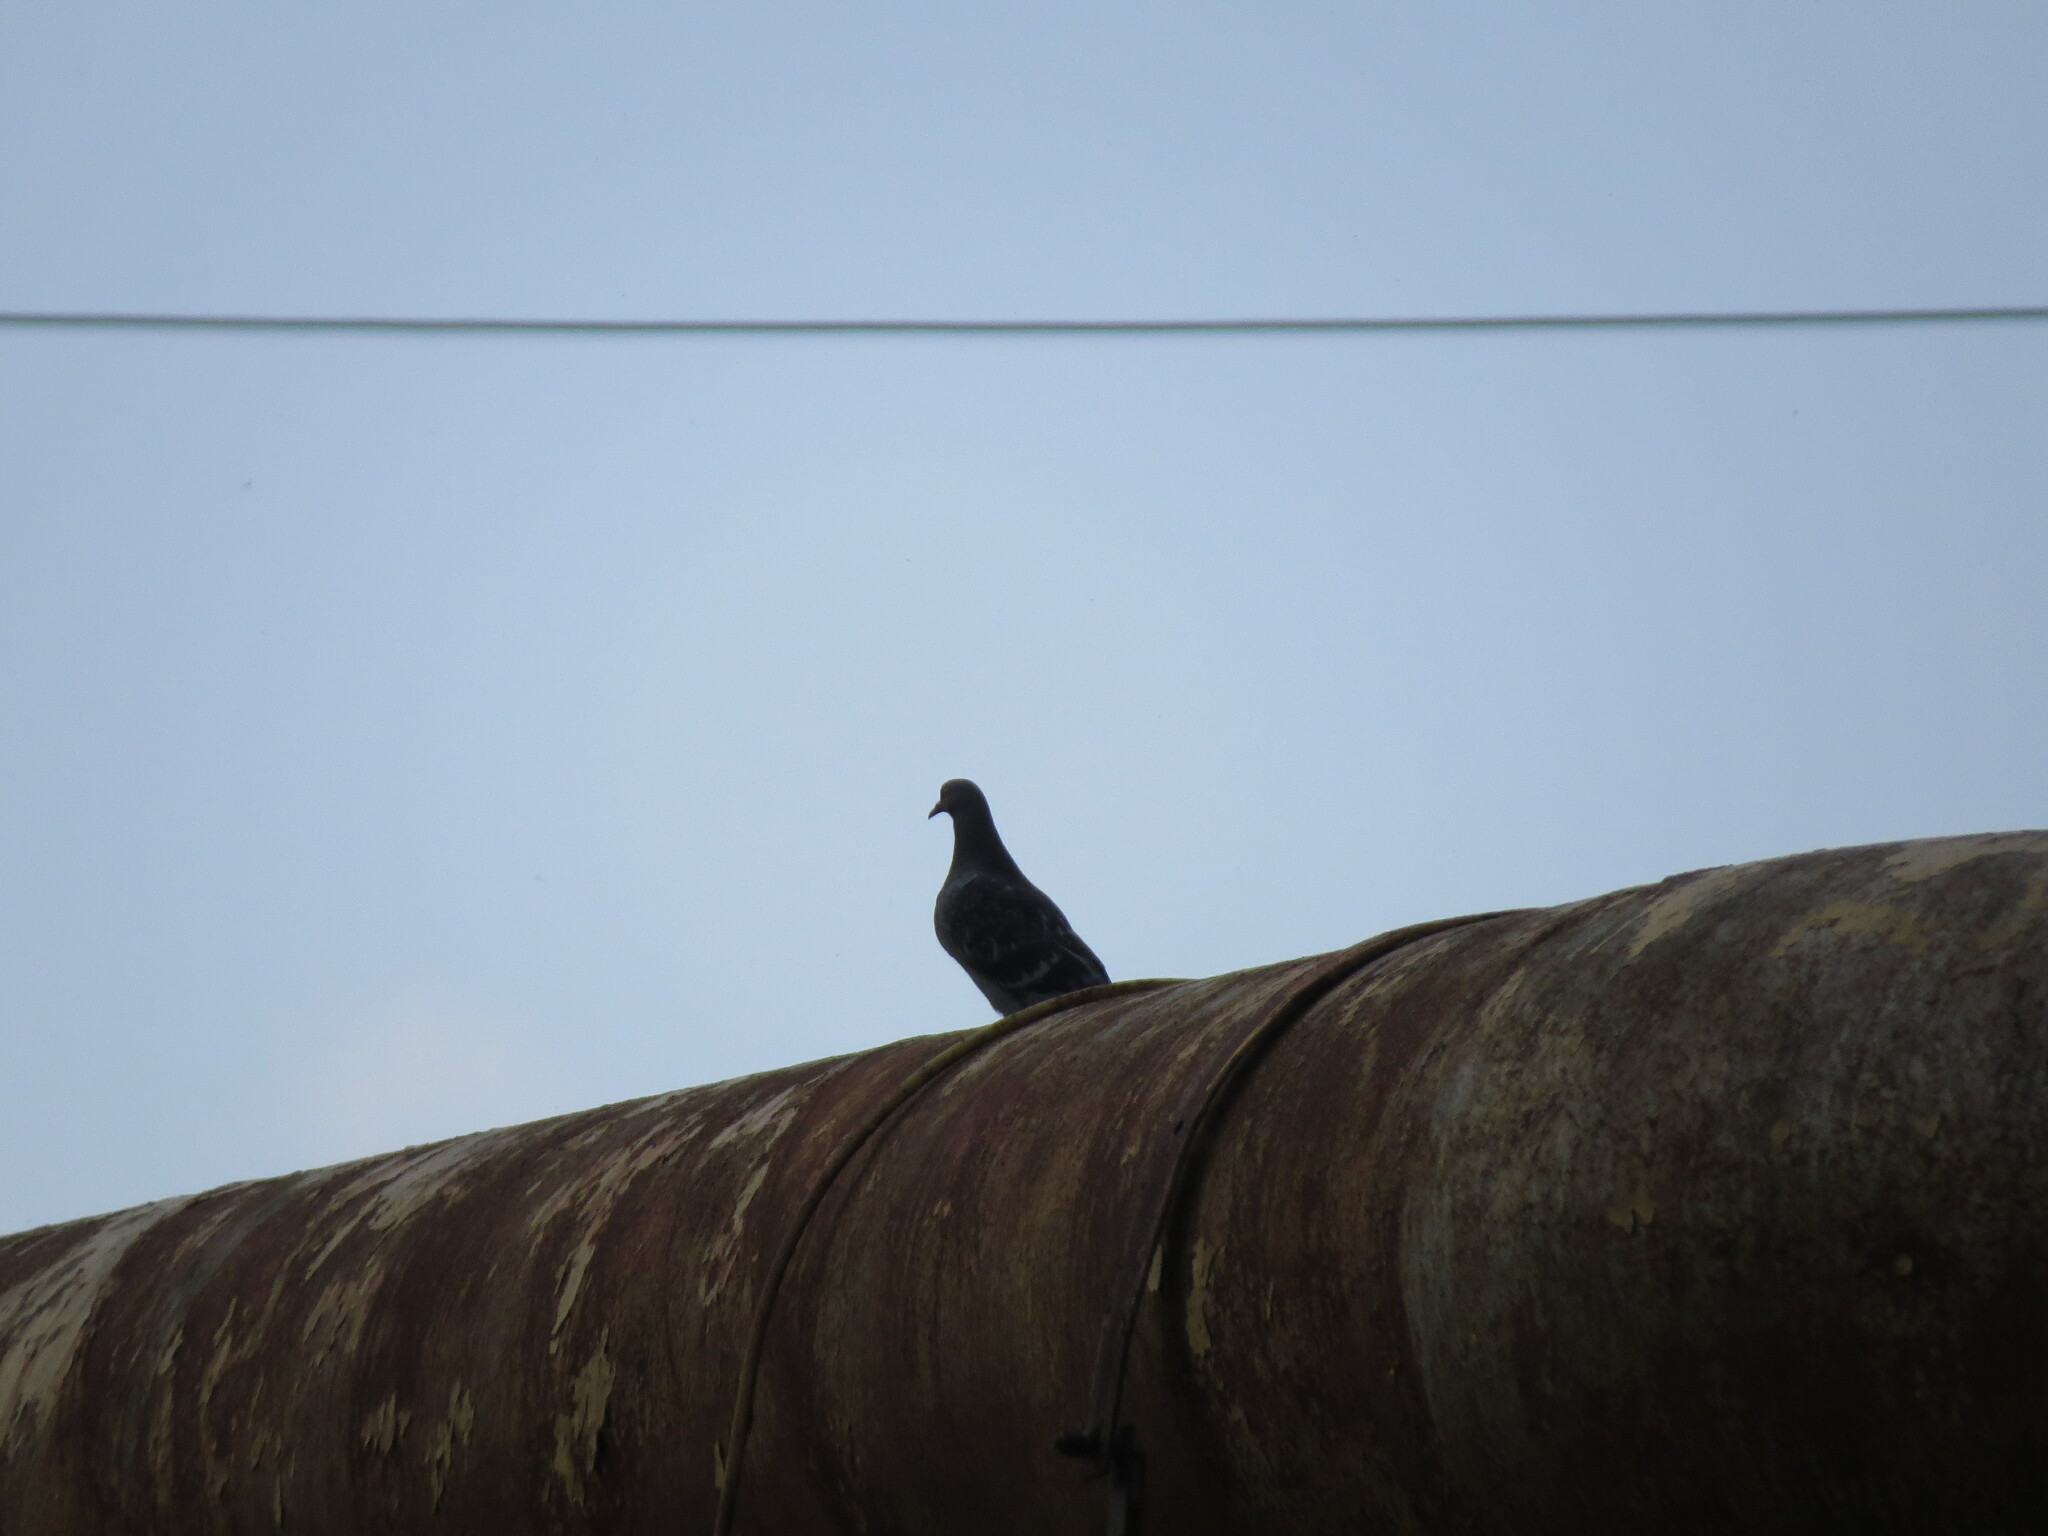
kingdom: Animalia
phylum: Chordata
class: Aves
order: Columbiformes
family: Columbidae
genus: Columba
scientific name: Columba livia
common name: Rock pigeon
